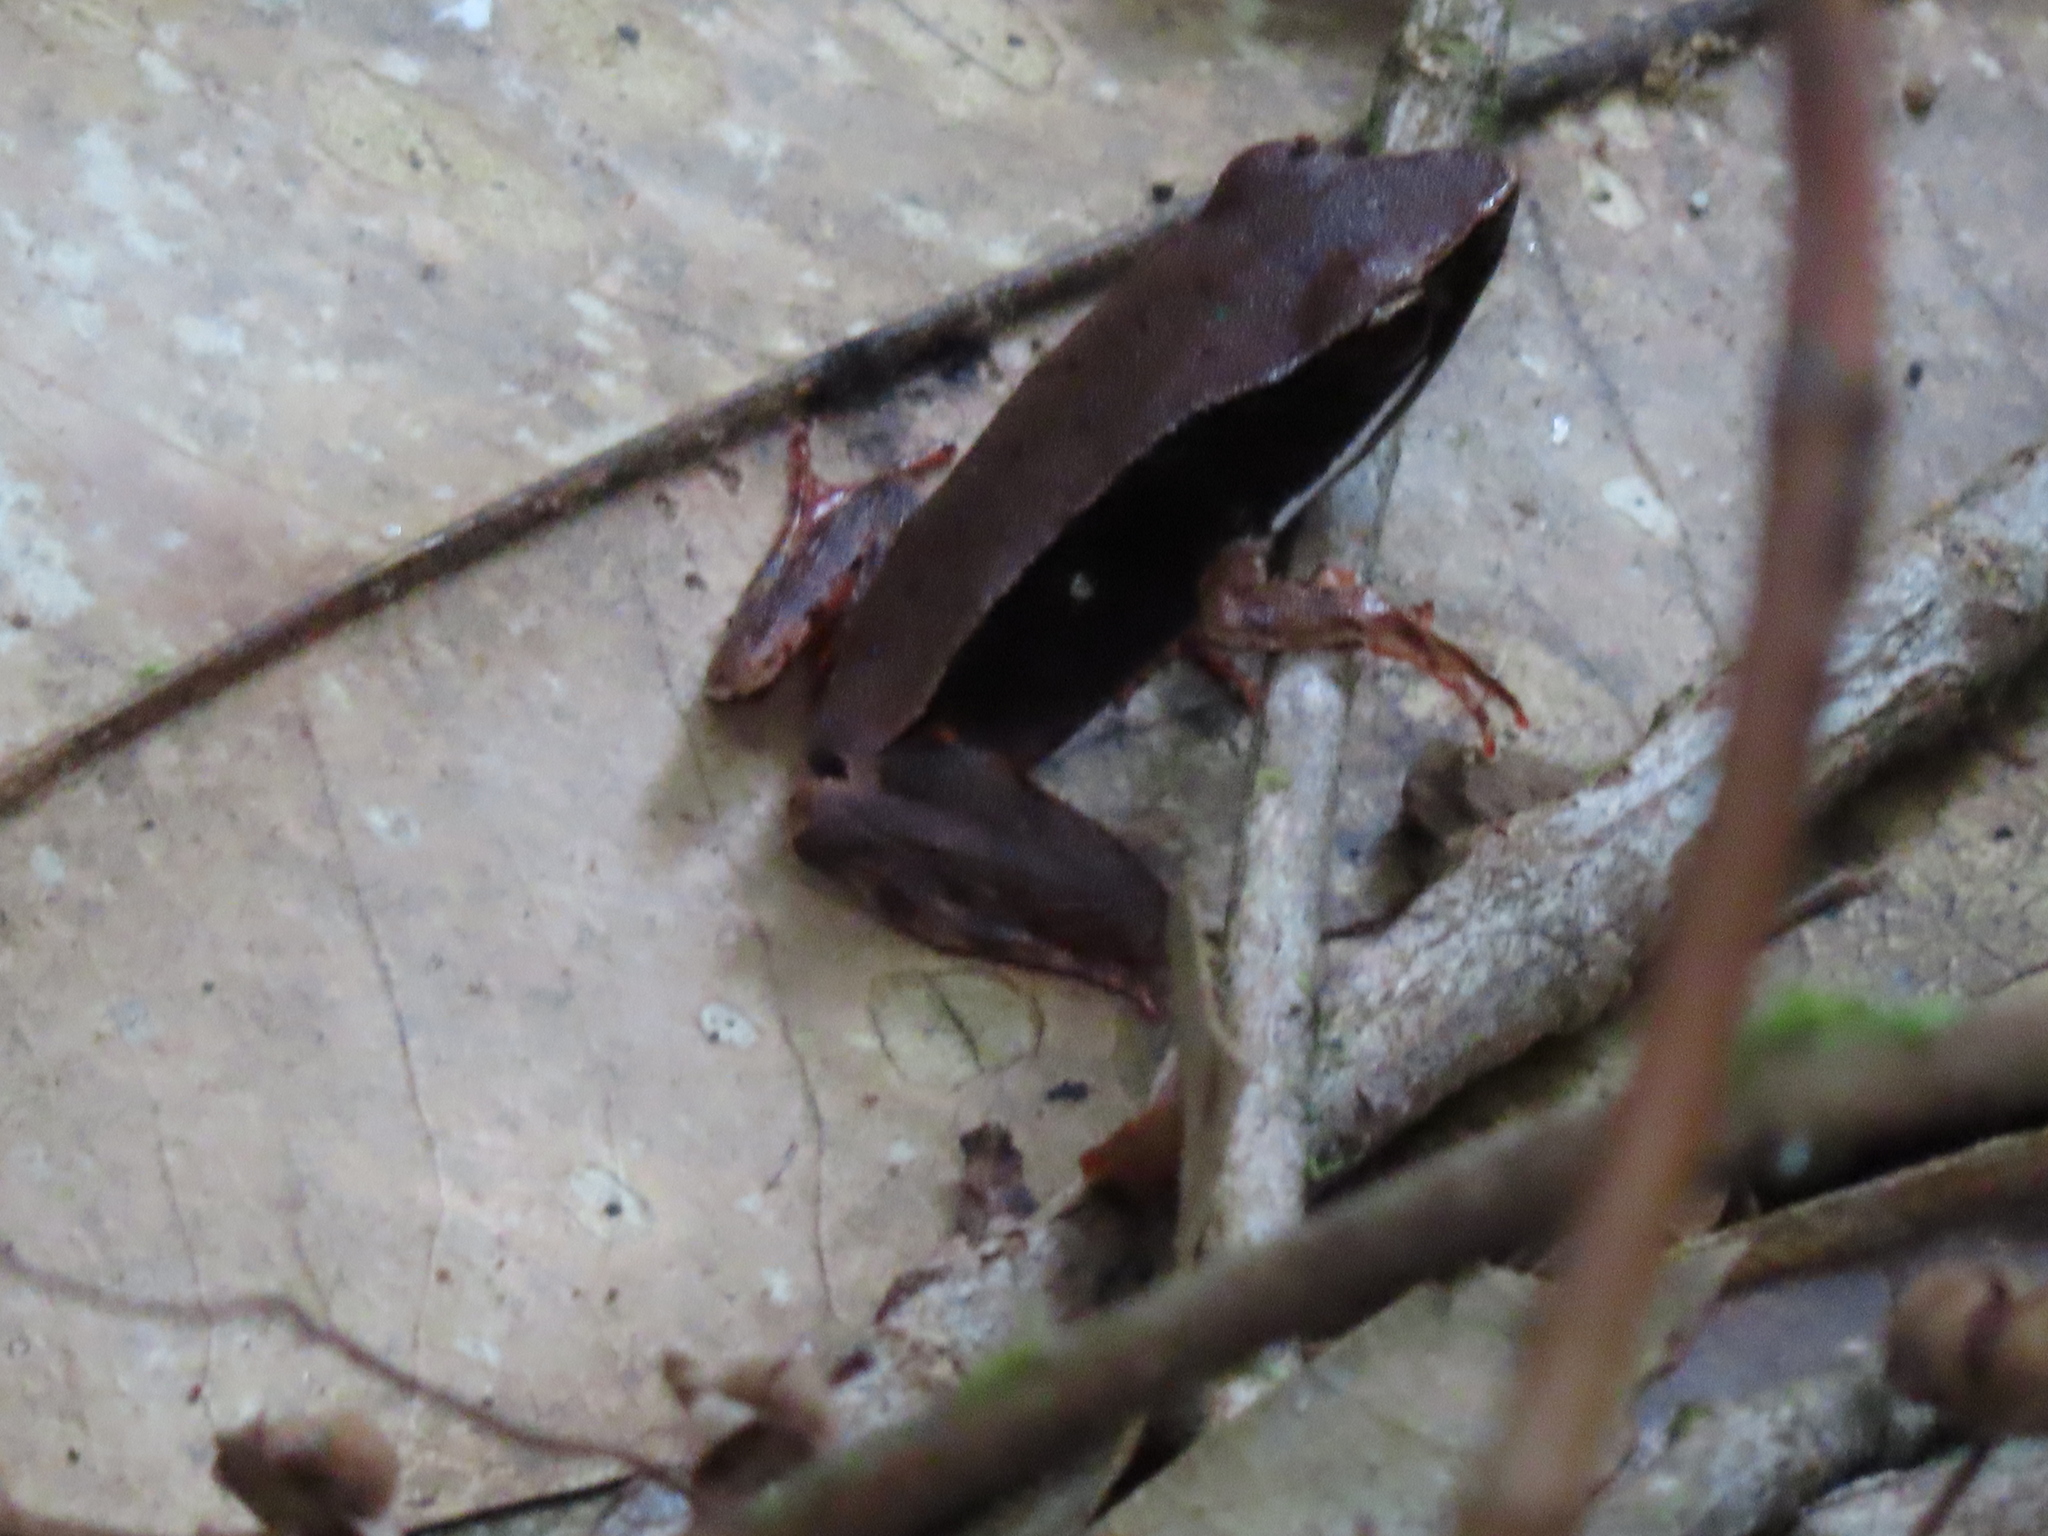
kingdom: Animalia
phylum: Chordata
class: Amphibia
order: Anura
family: Ranidae
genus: Lithobates
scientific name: Lithobates warszewitschii
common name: Warszewitsch's frog
